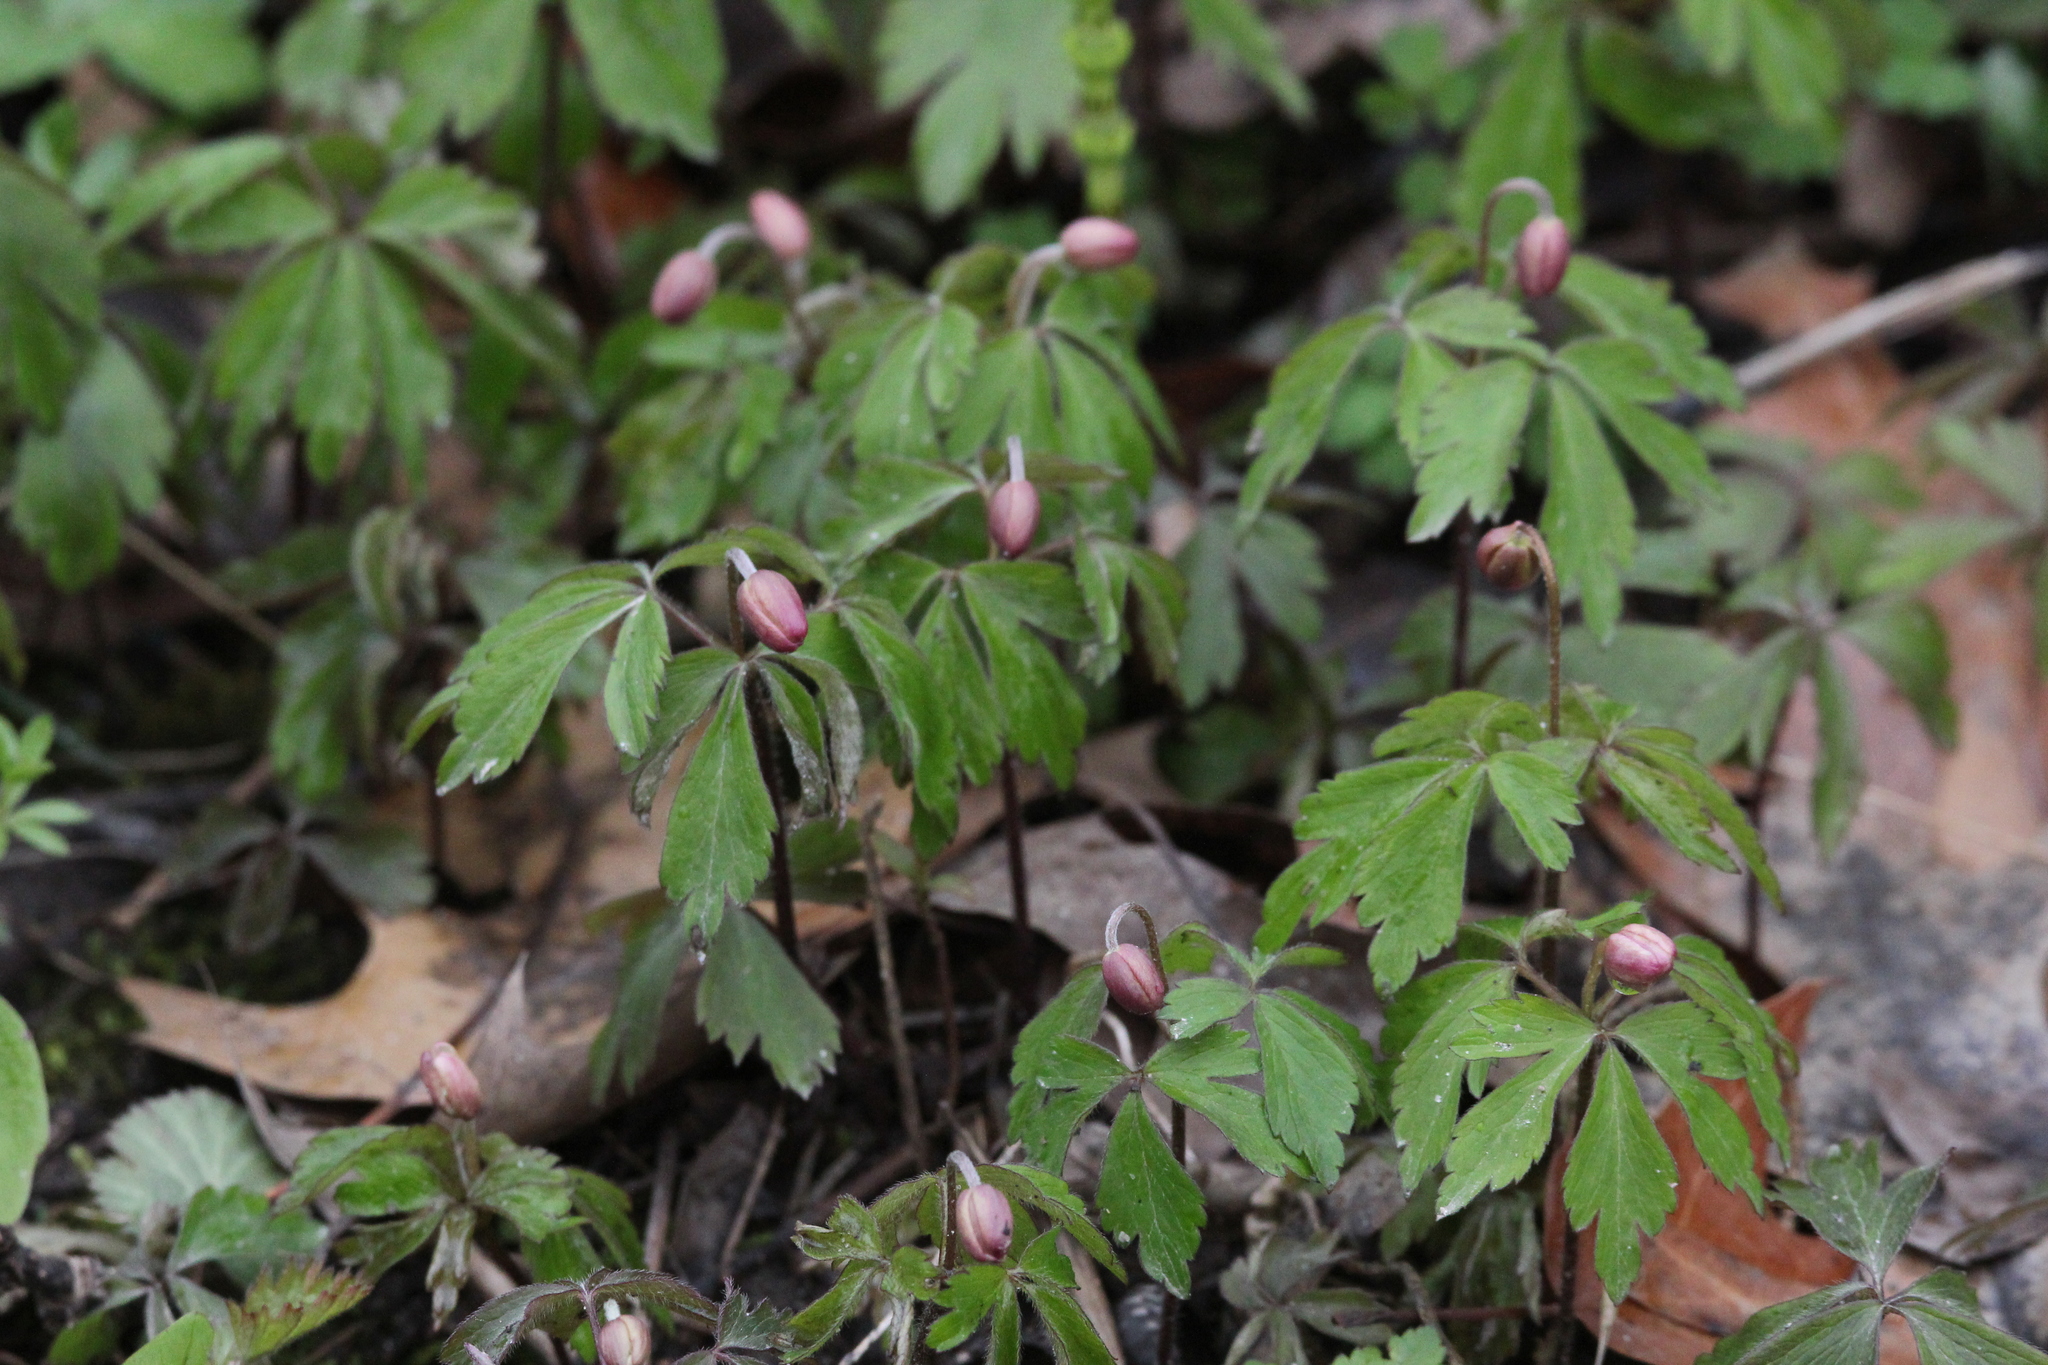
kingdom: Plantae
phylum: Tracheophyta
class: Magnoliopsida
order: Ranunculales
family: Ranunculaceae
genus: Anemone
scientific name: Anemone quinquefolia
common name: Wood anemone
